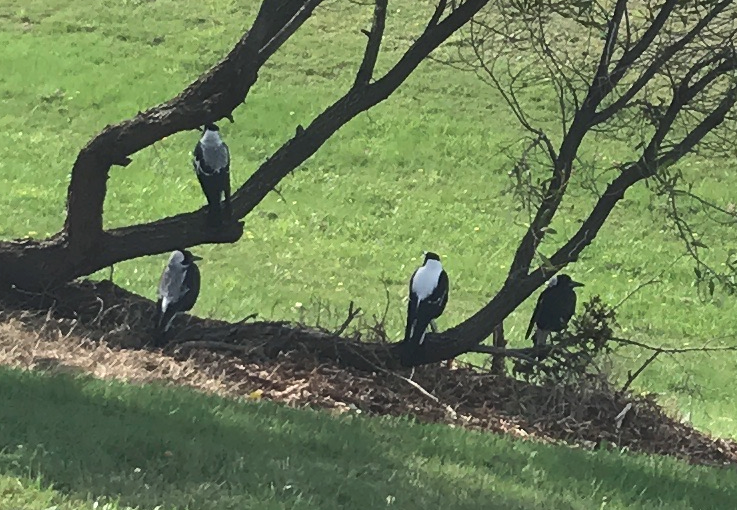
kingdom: Animalia
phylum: Chordata
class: Aves
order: Passeriformes
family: Cracticidae
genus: Gymnorhina
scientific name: Gymnorhina tibicen
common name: Australian magpie
